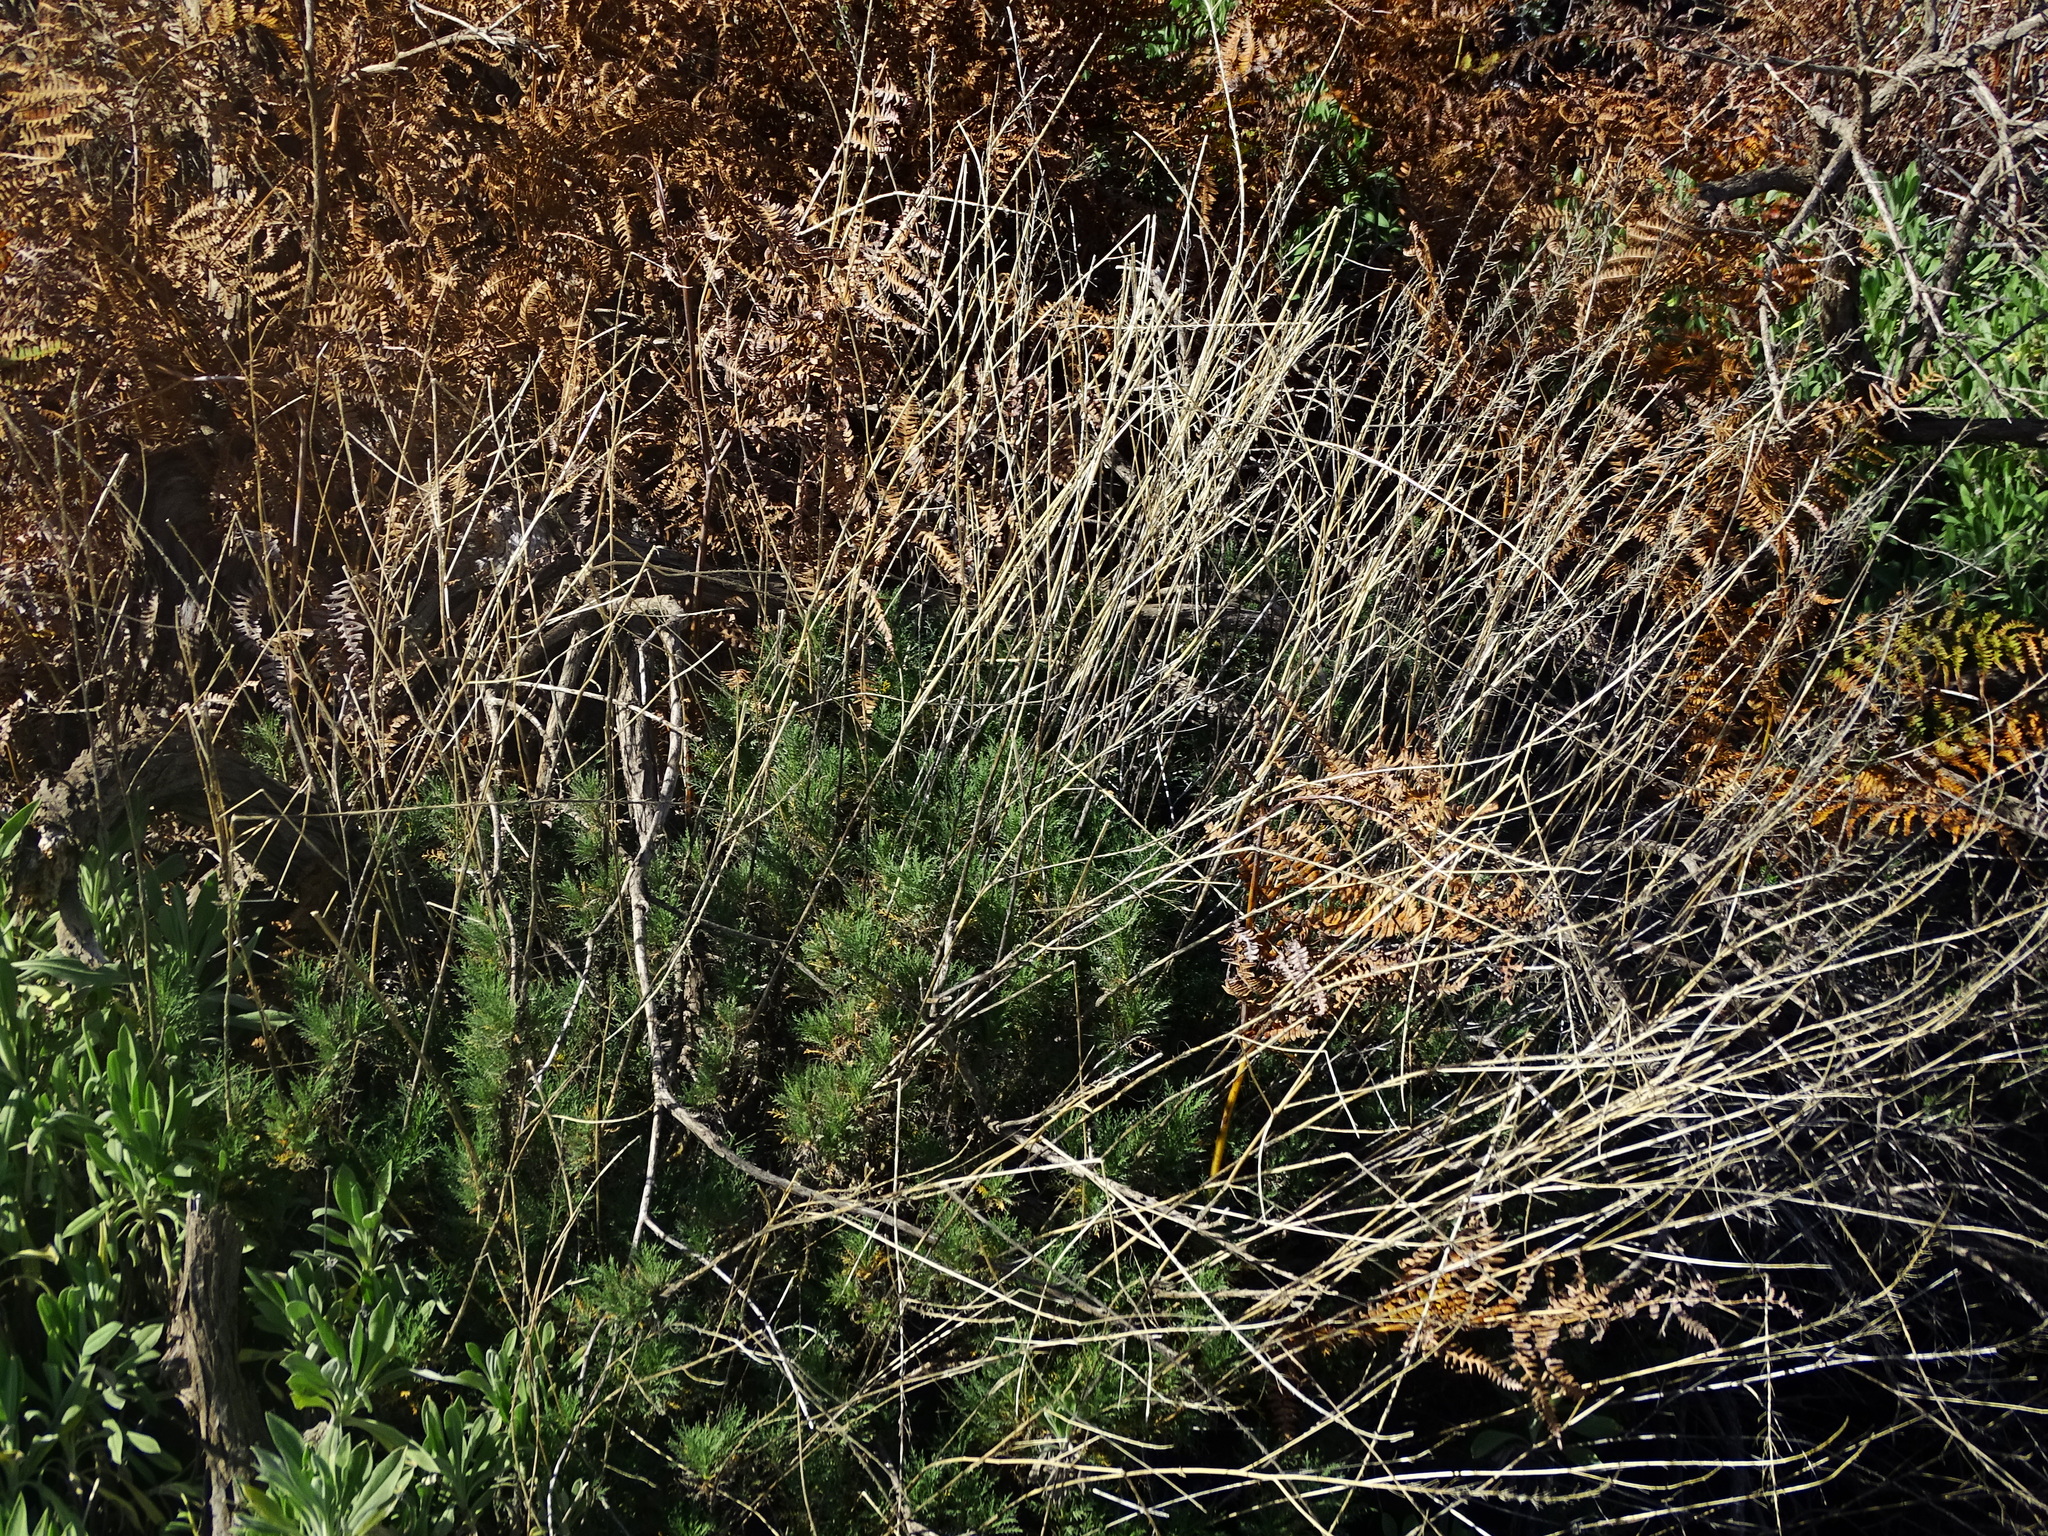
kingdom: Plantae
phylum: Tracheophyta
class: Magnoliopsida
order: Brassicales
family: Brassicaceae
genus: Descurainia
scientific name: Descurainia gilva
